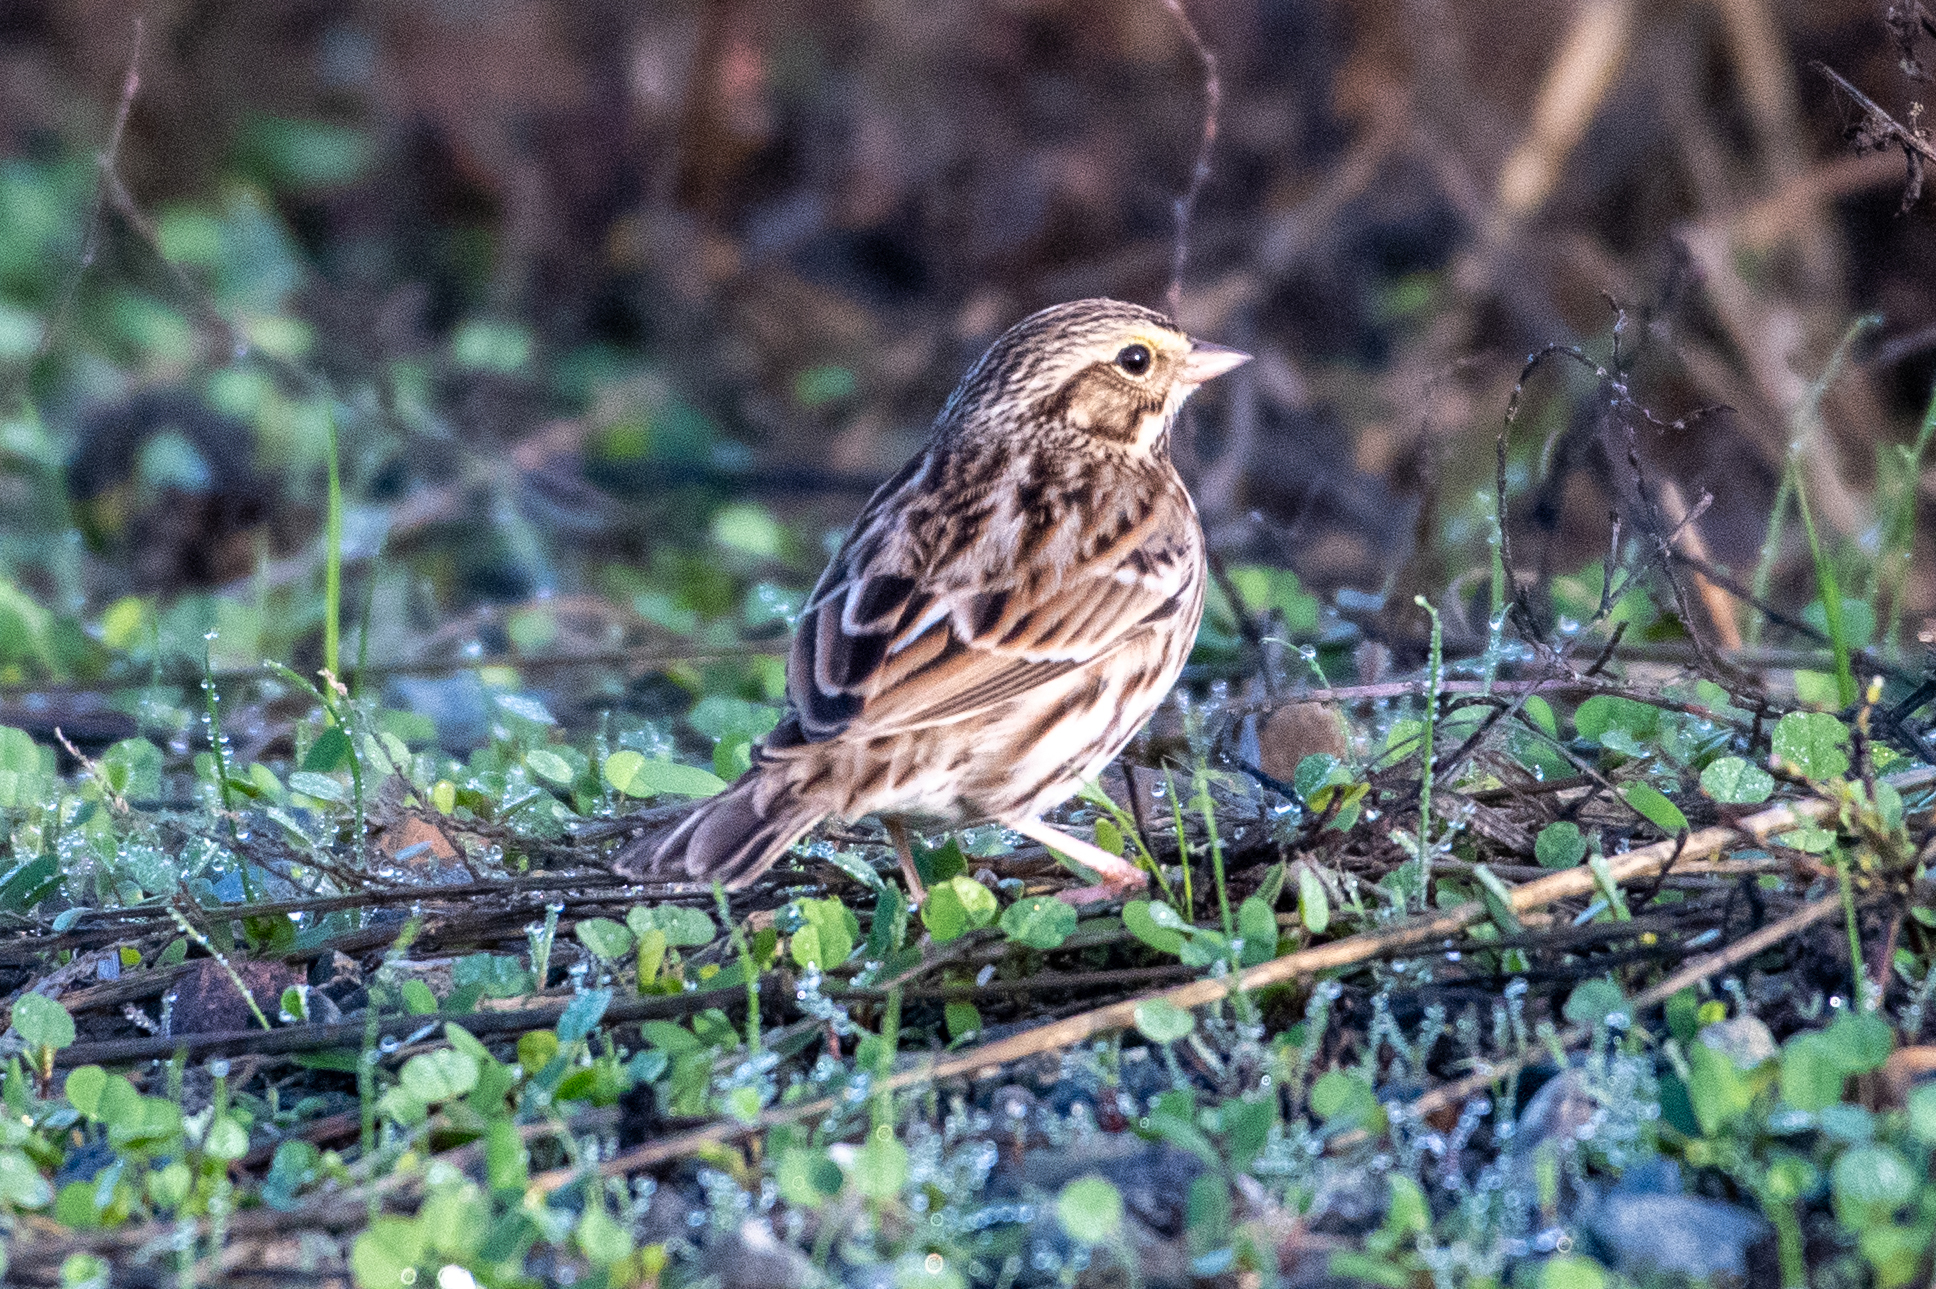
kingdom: Animalia
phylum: Chordata
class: Aves
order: Passeriformes
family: Passerellidae
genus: Passerculus
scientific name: Passerculus sandwichensis
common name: Savannah sparrow
